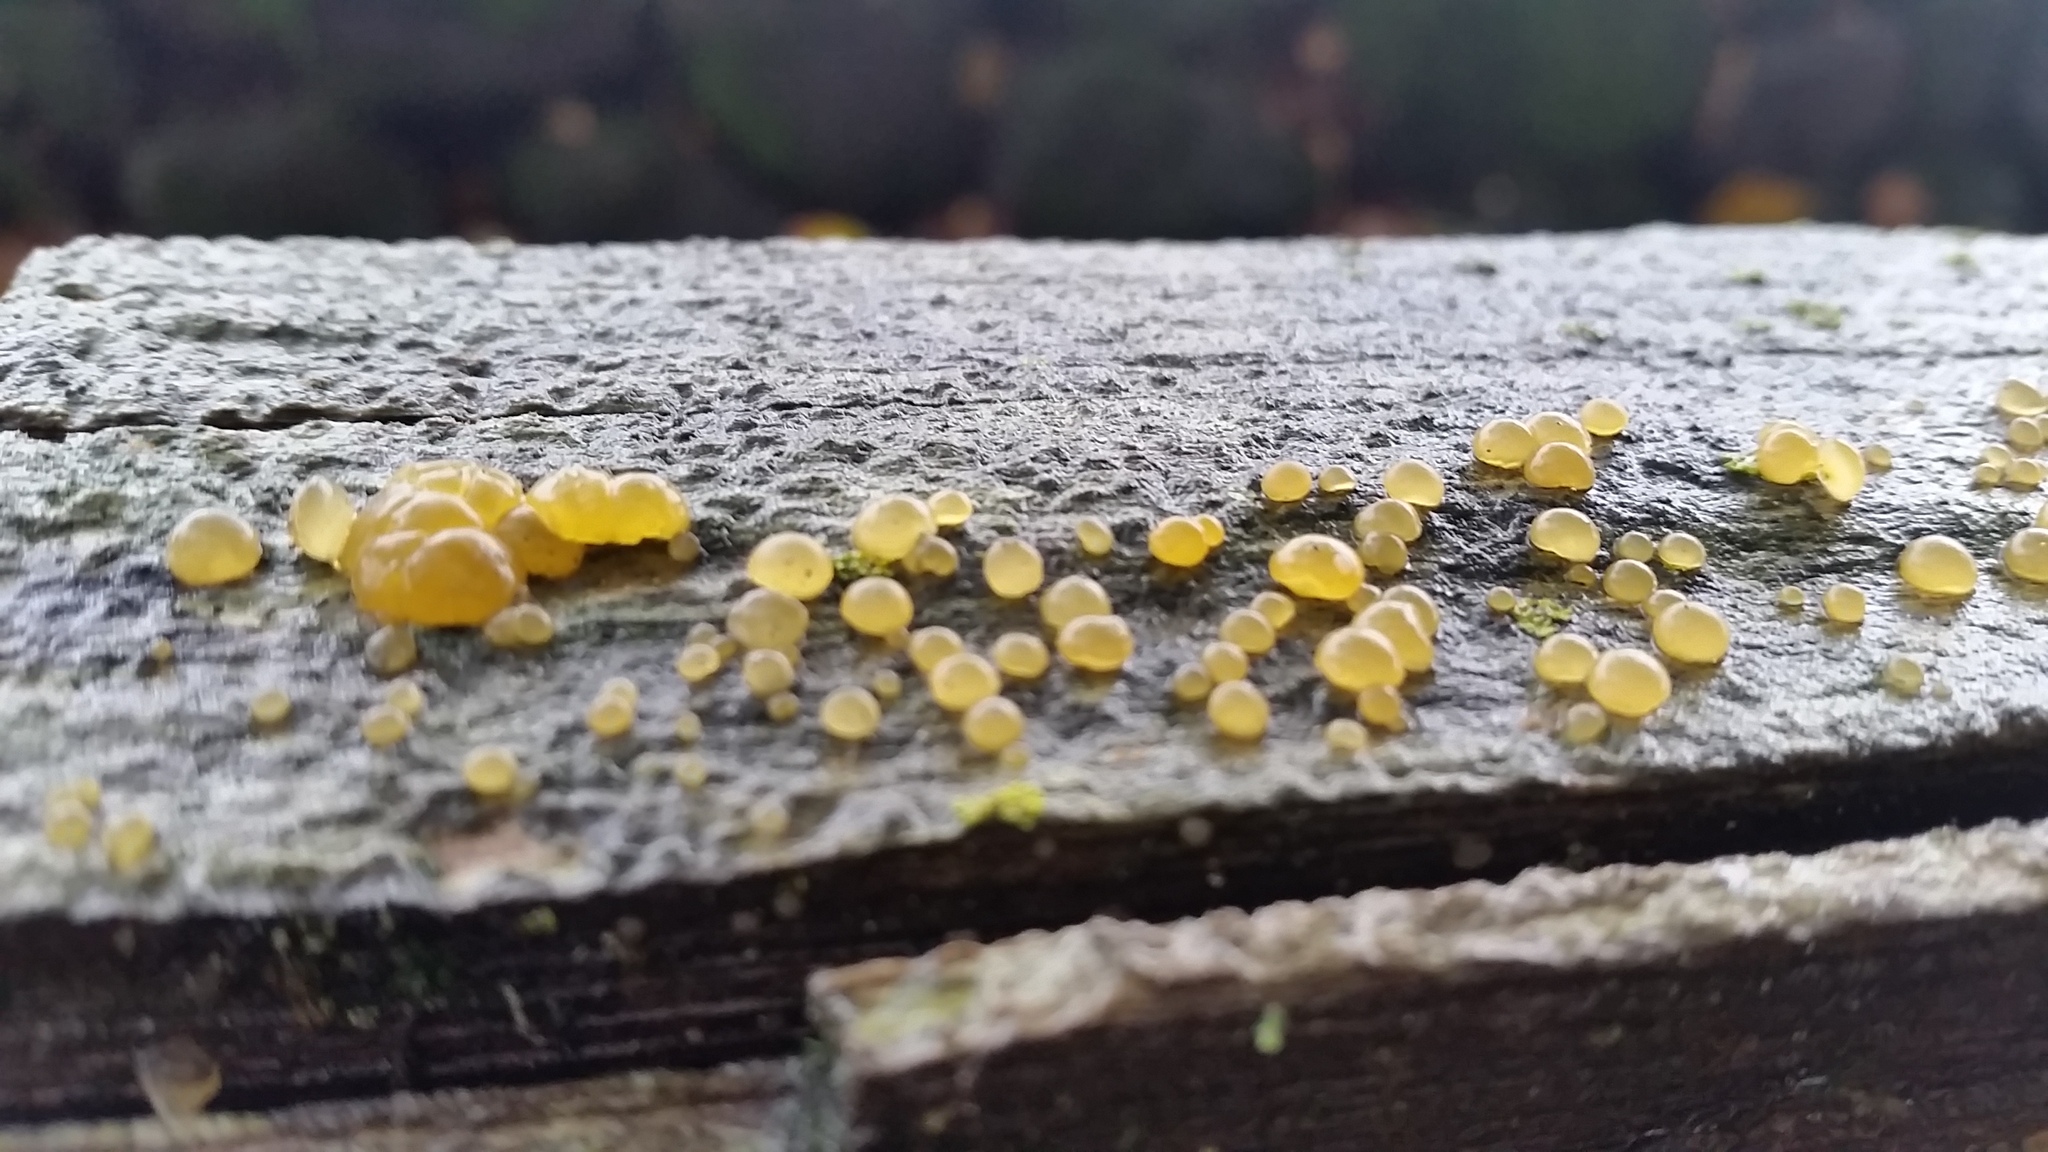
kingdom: Fungi
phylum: Basidiomycota
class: Dacrymycetes
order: Dacrymycetales
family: Dacrymycetaceae
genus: Dacrymyces
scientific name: Dacrymyces stillatus
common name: Common jelly spot
